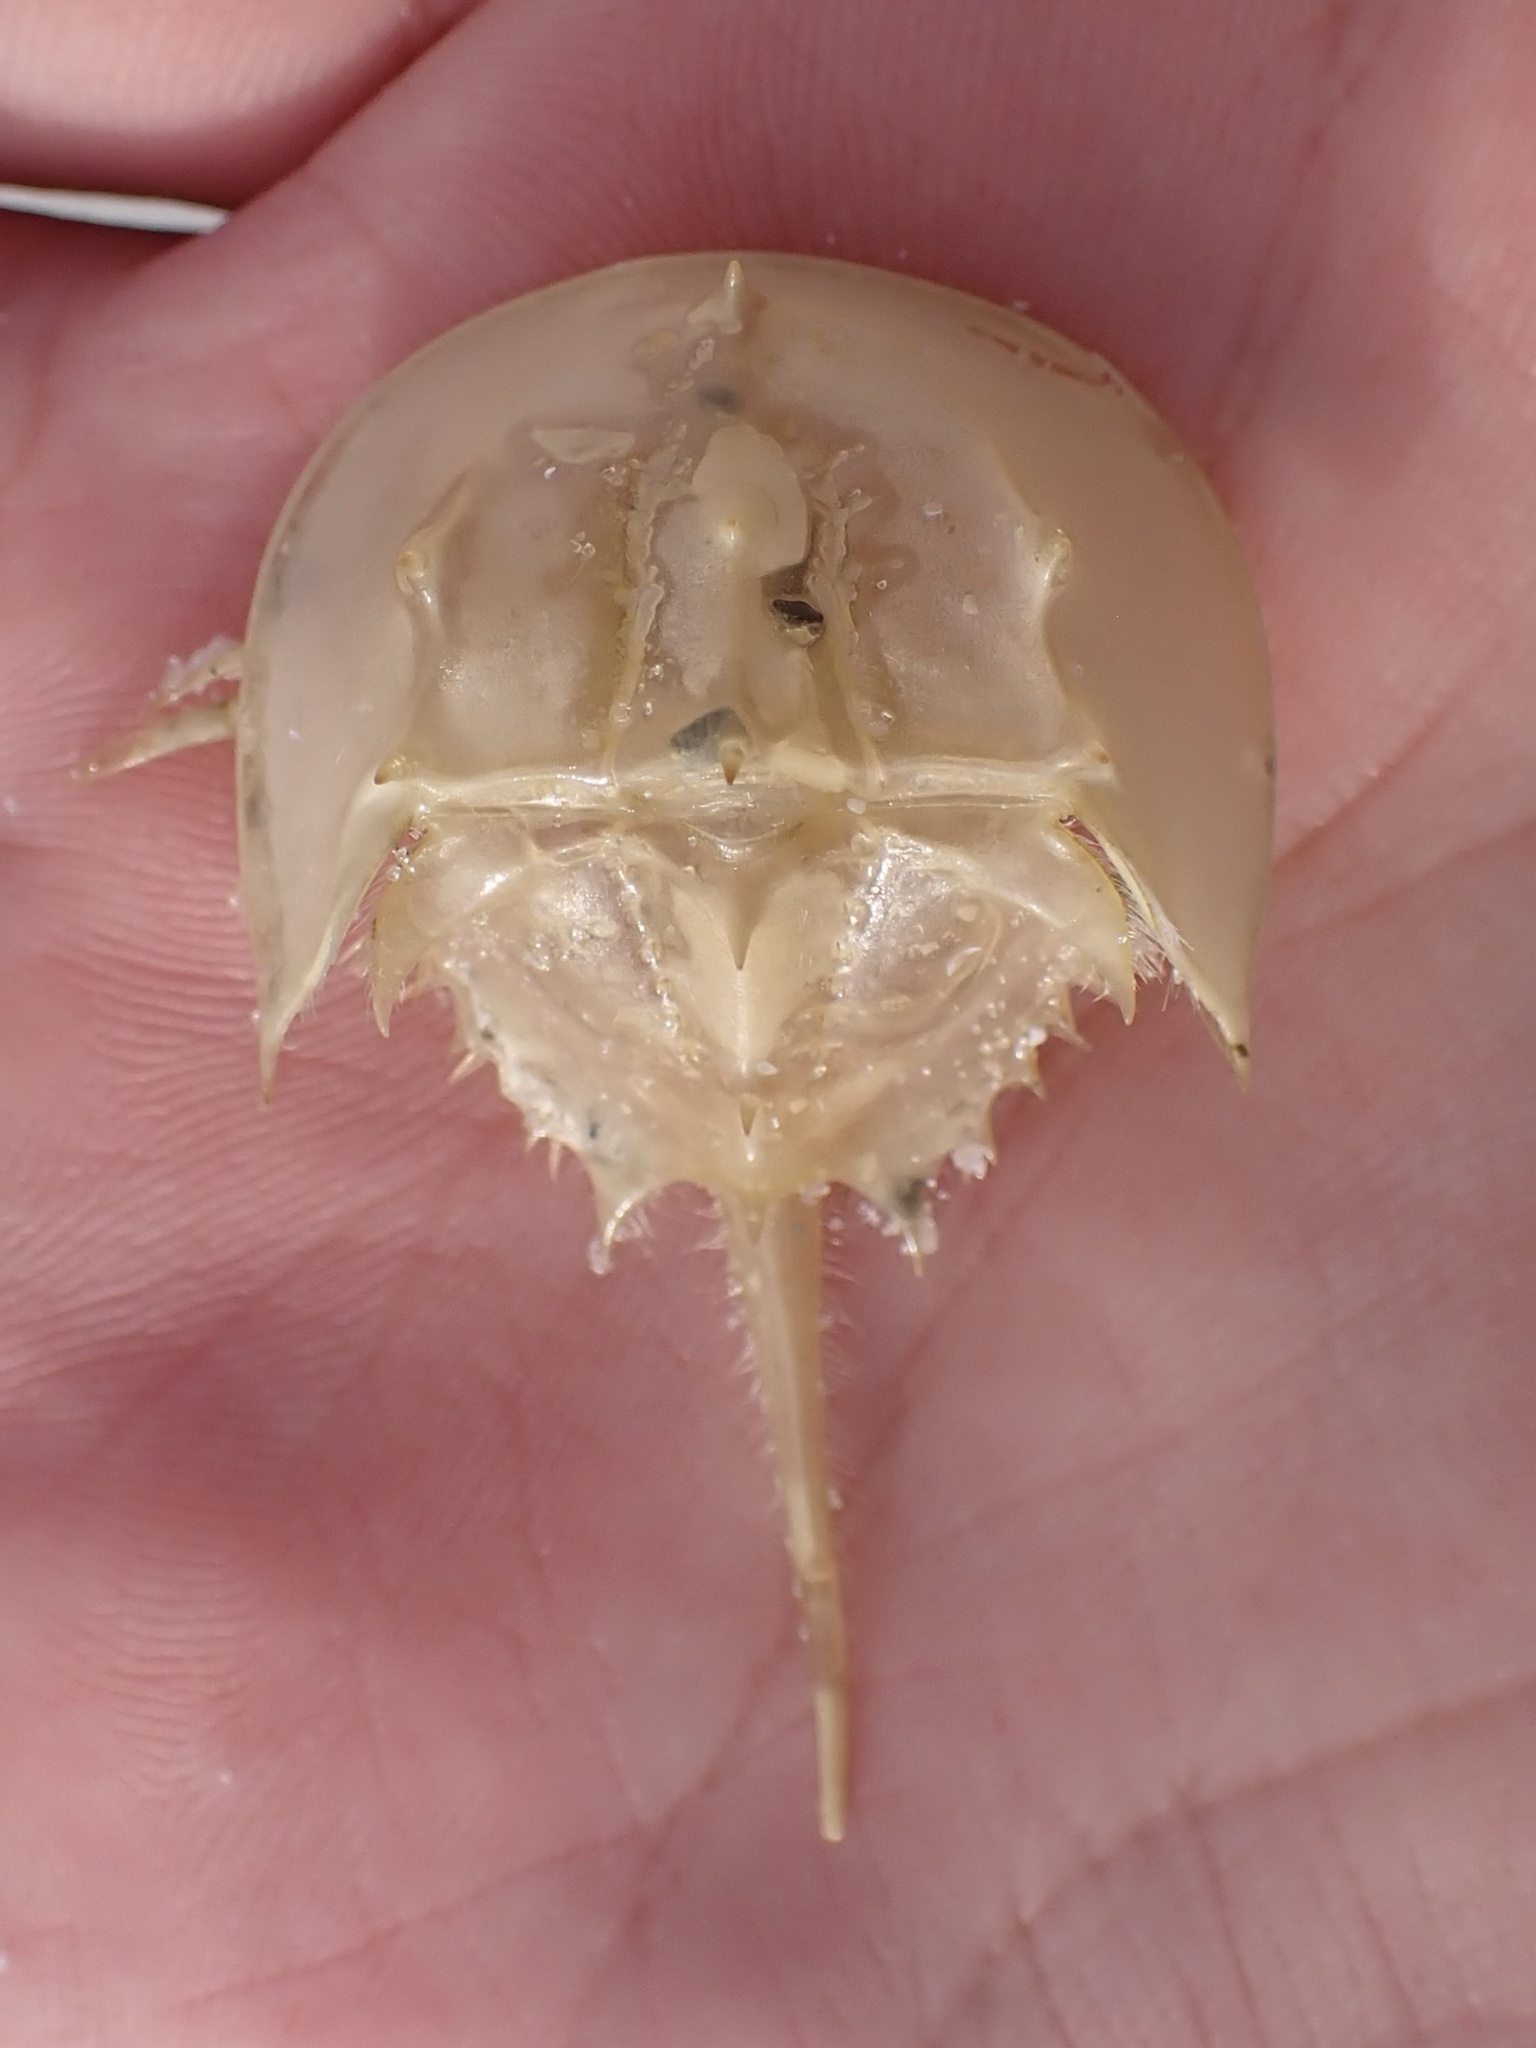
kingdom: Animalia
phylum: Arthropoda
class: Merostomata
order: Xiphosurida
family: Limulidae
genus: Limulus
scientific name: Limulus polyphemus
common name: Horseshoe crab
